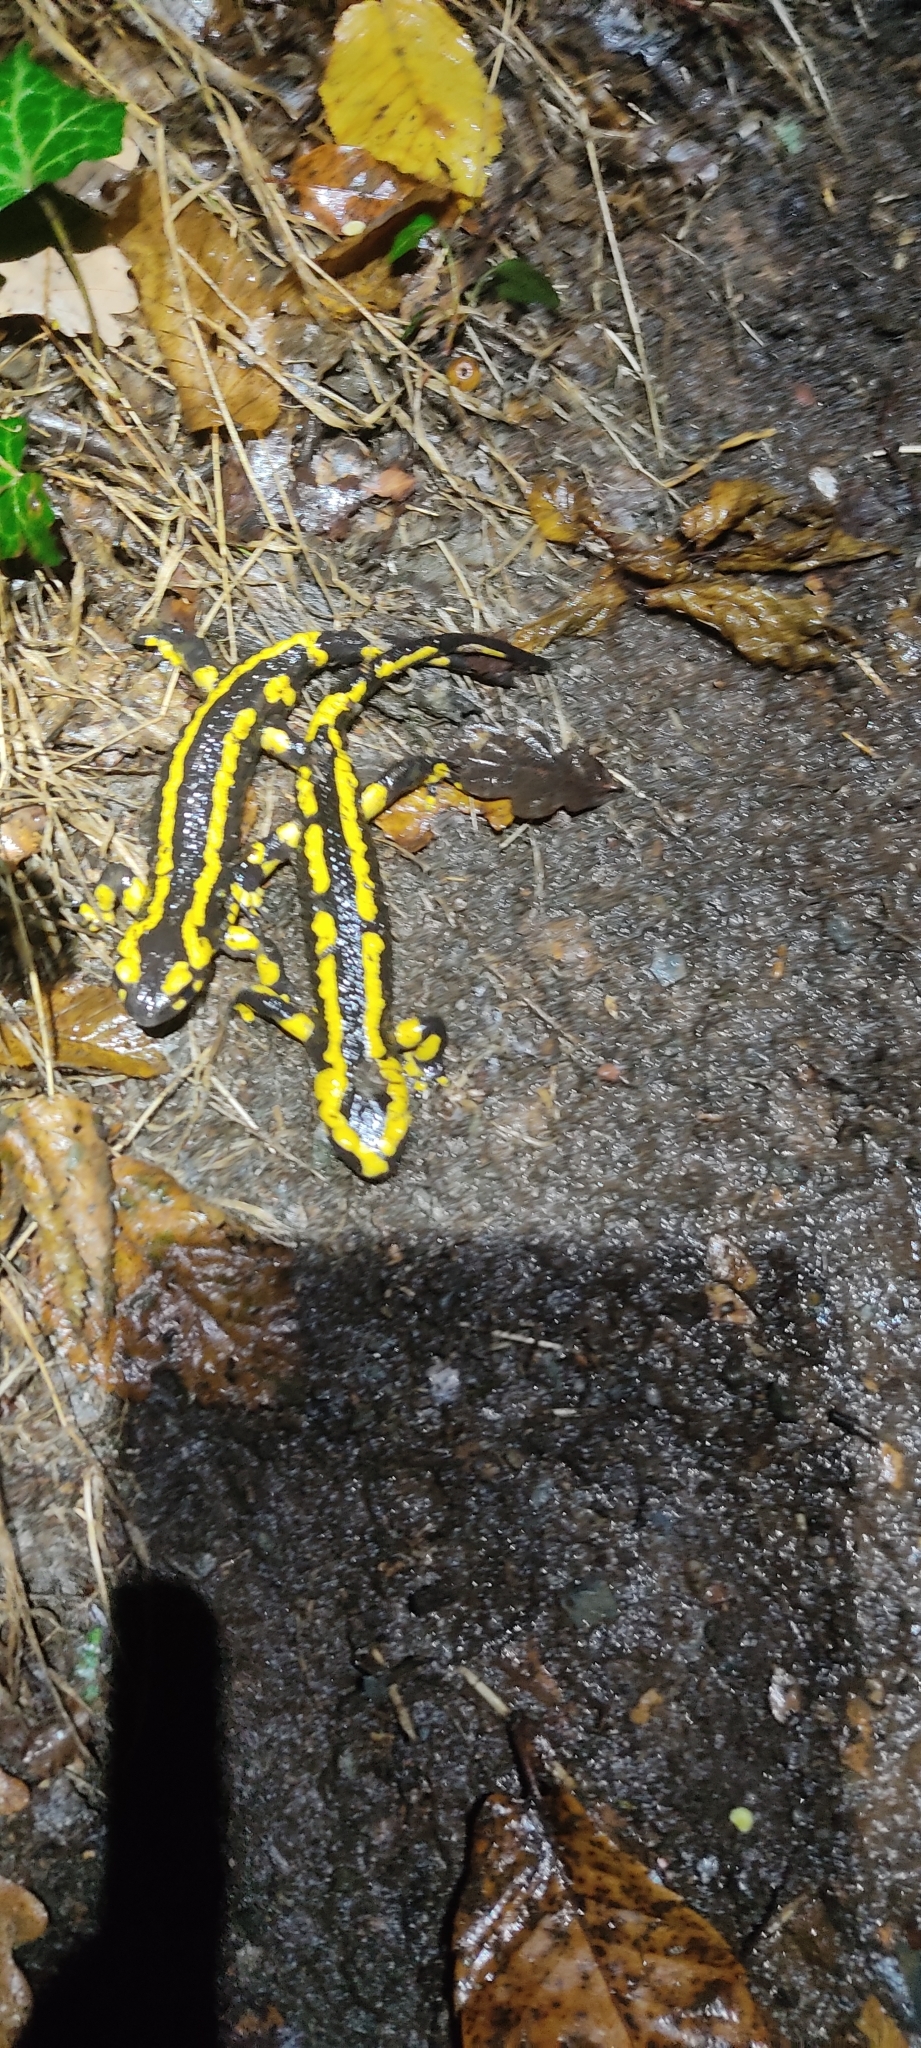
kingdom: Animalia
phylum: Chordata
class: Amphibia
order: Caudata
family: Salamandridae
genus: Salamandra
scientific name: Salamandra salamandra
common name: Fire salamander
